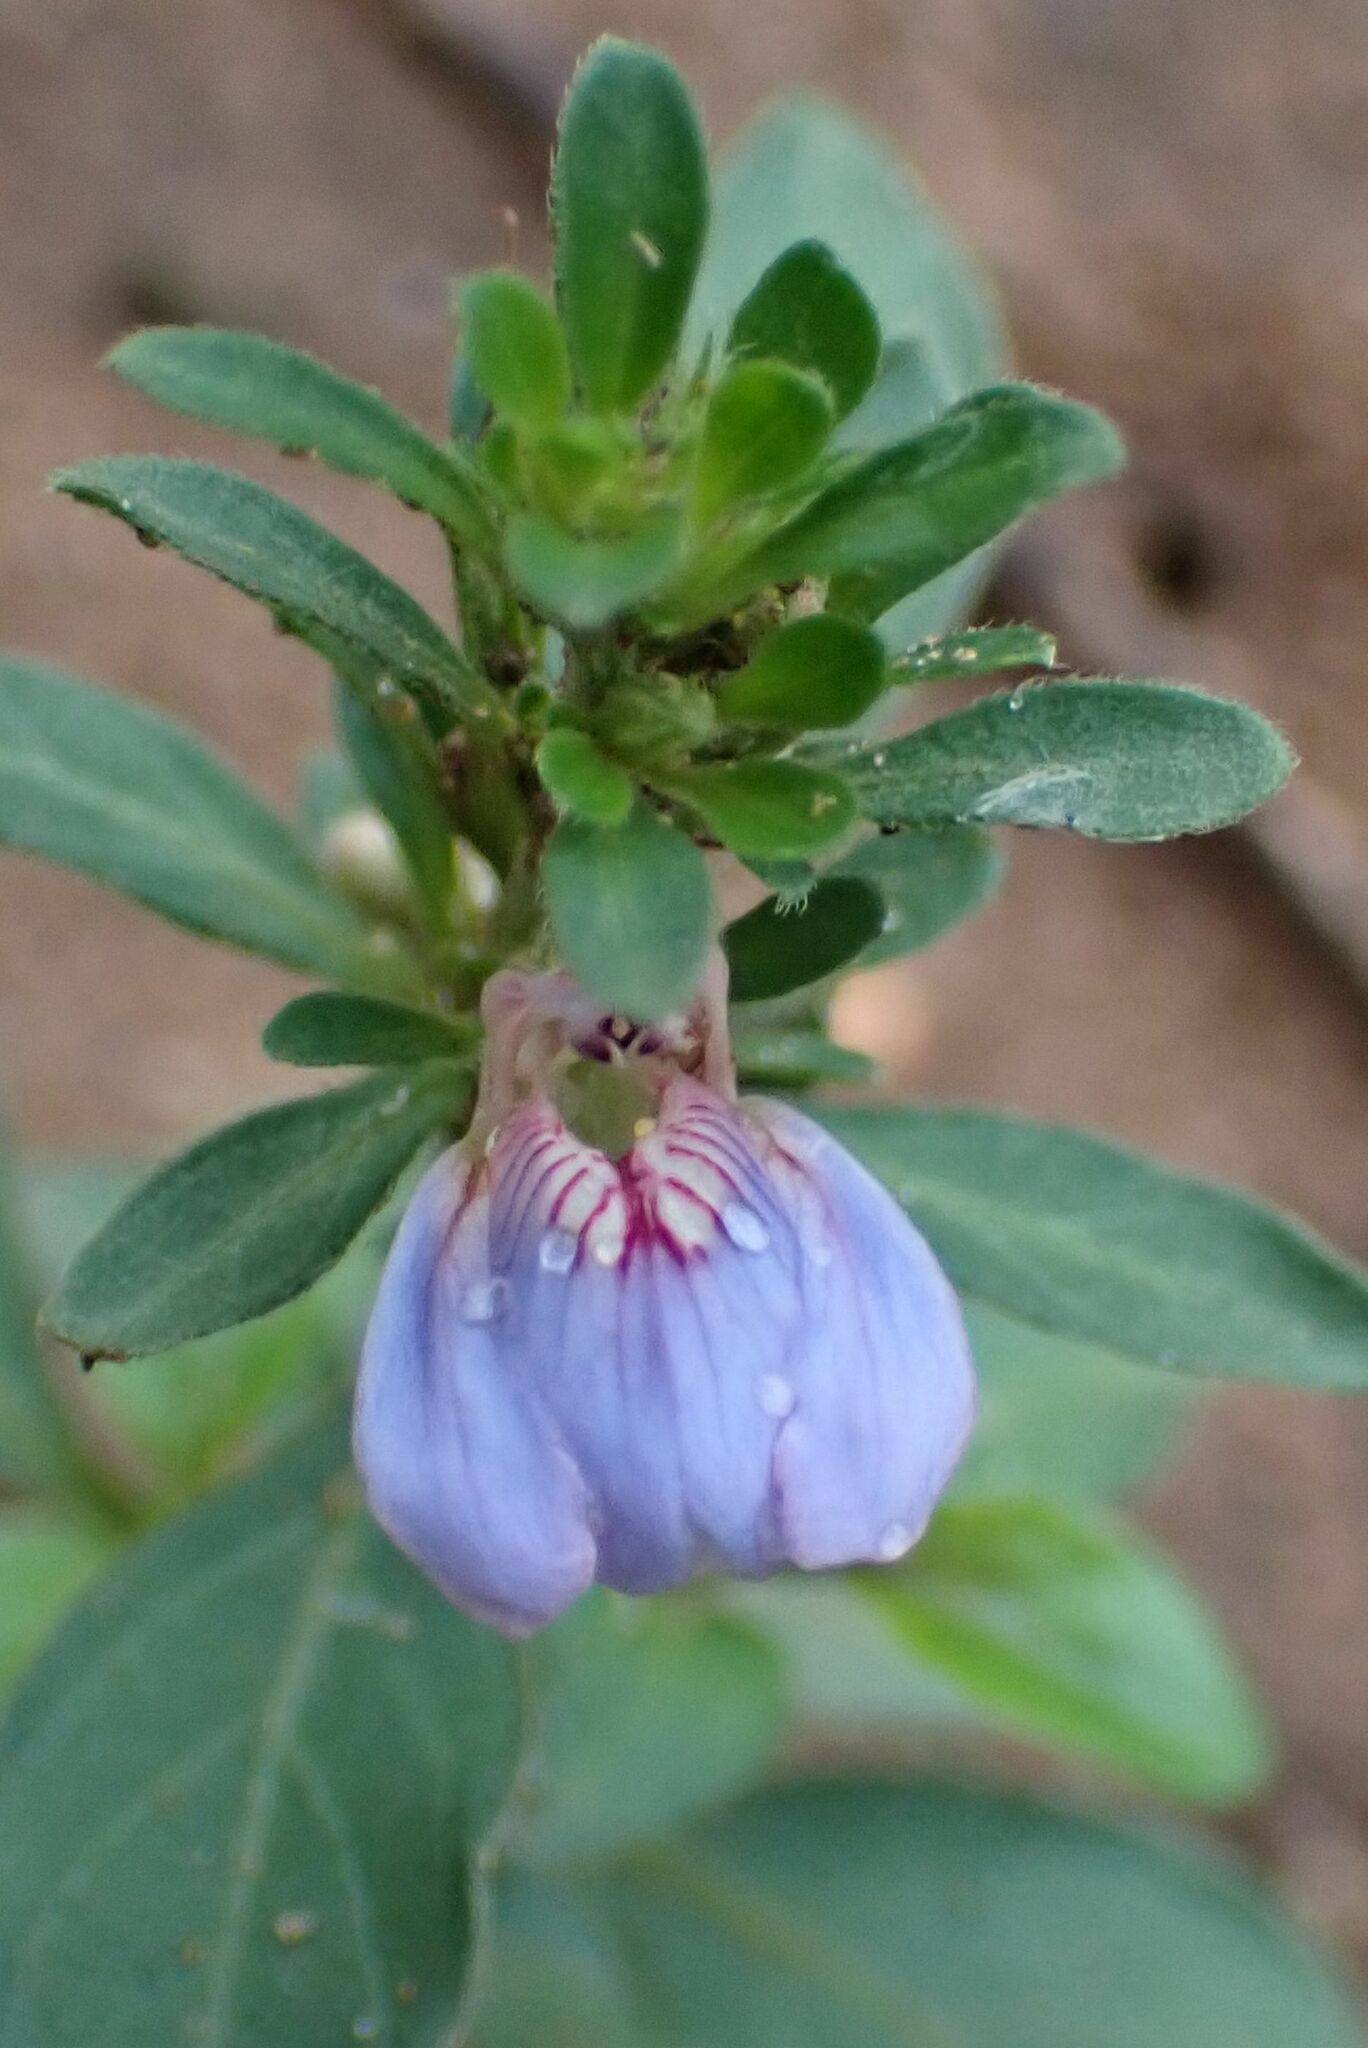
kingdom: Plantae
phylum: Tracheophyta
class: Magnoliopsida
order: Lamiales
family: Acanthaceae
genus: Justicia
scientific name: Justicia petiolaris
